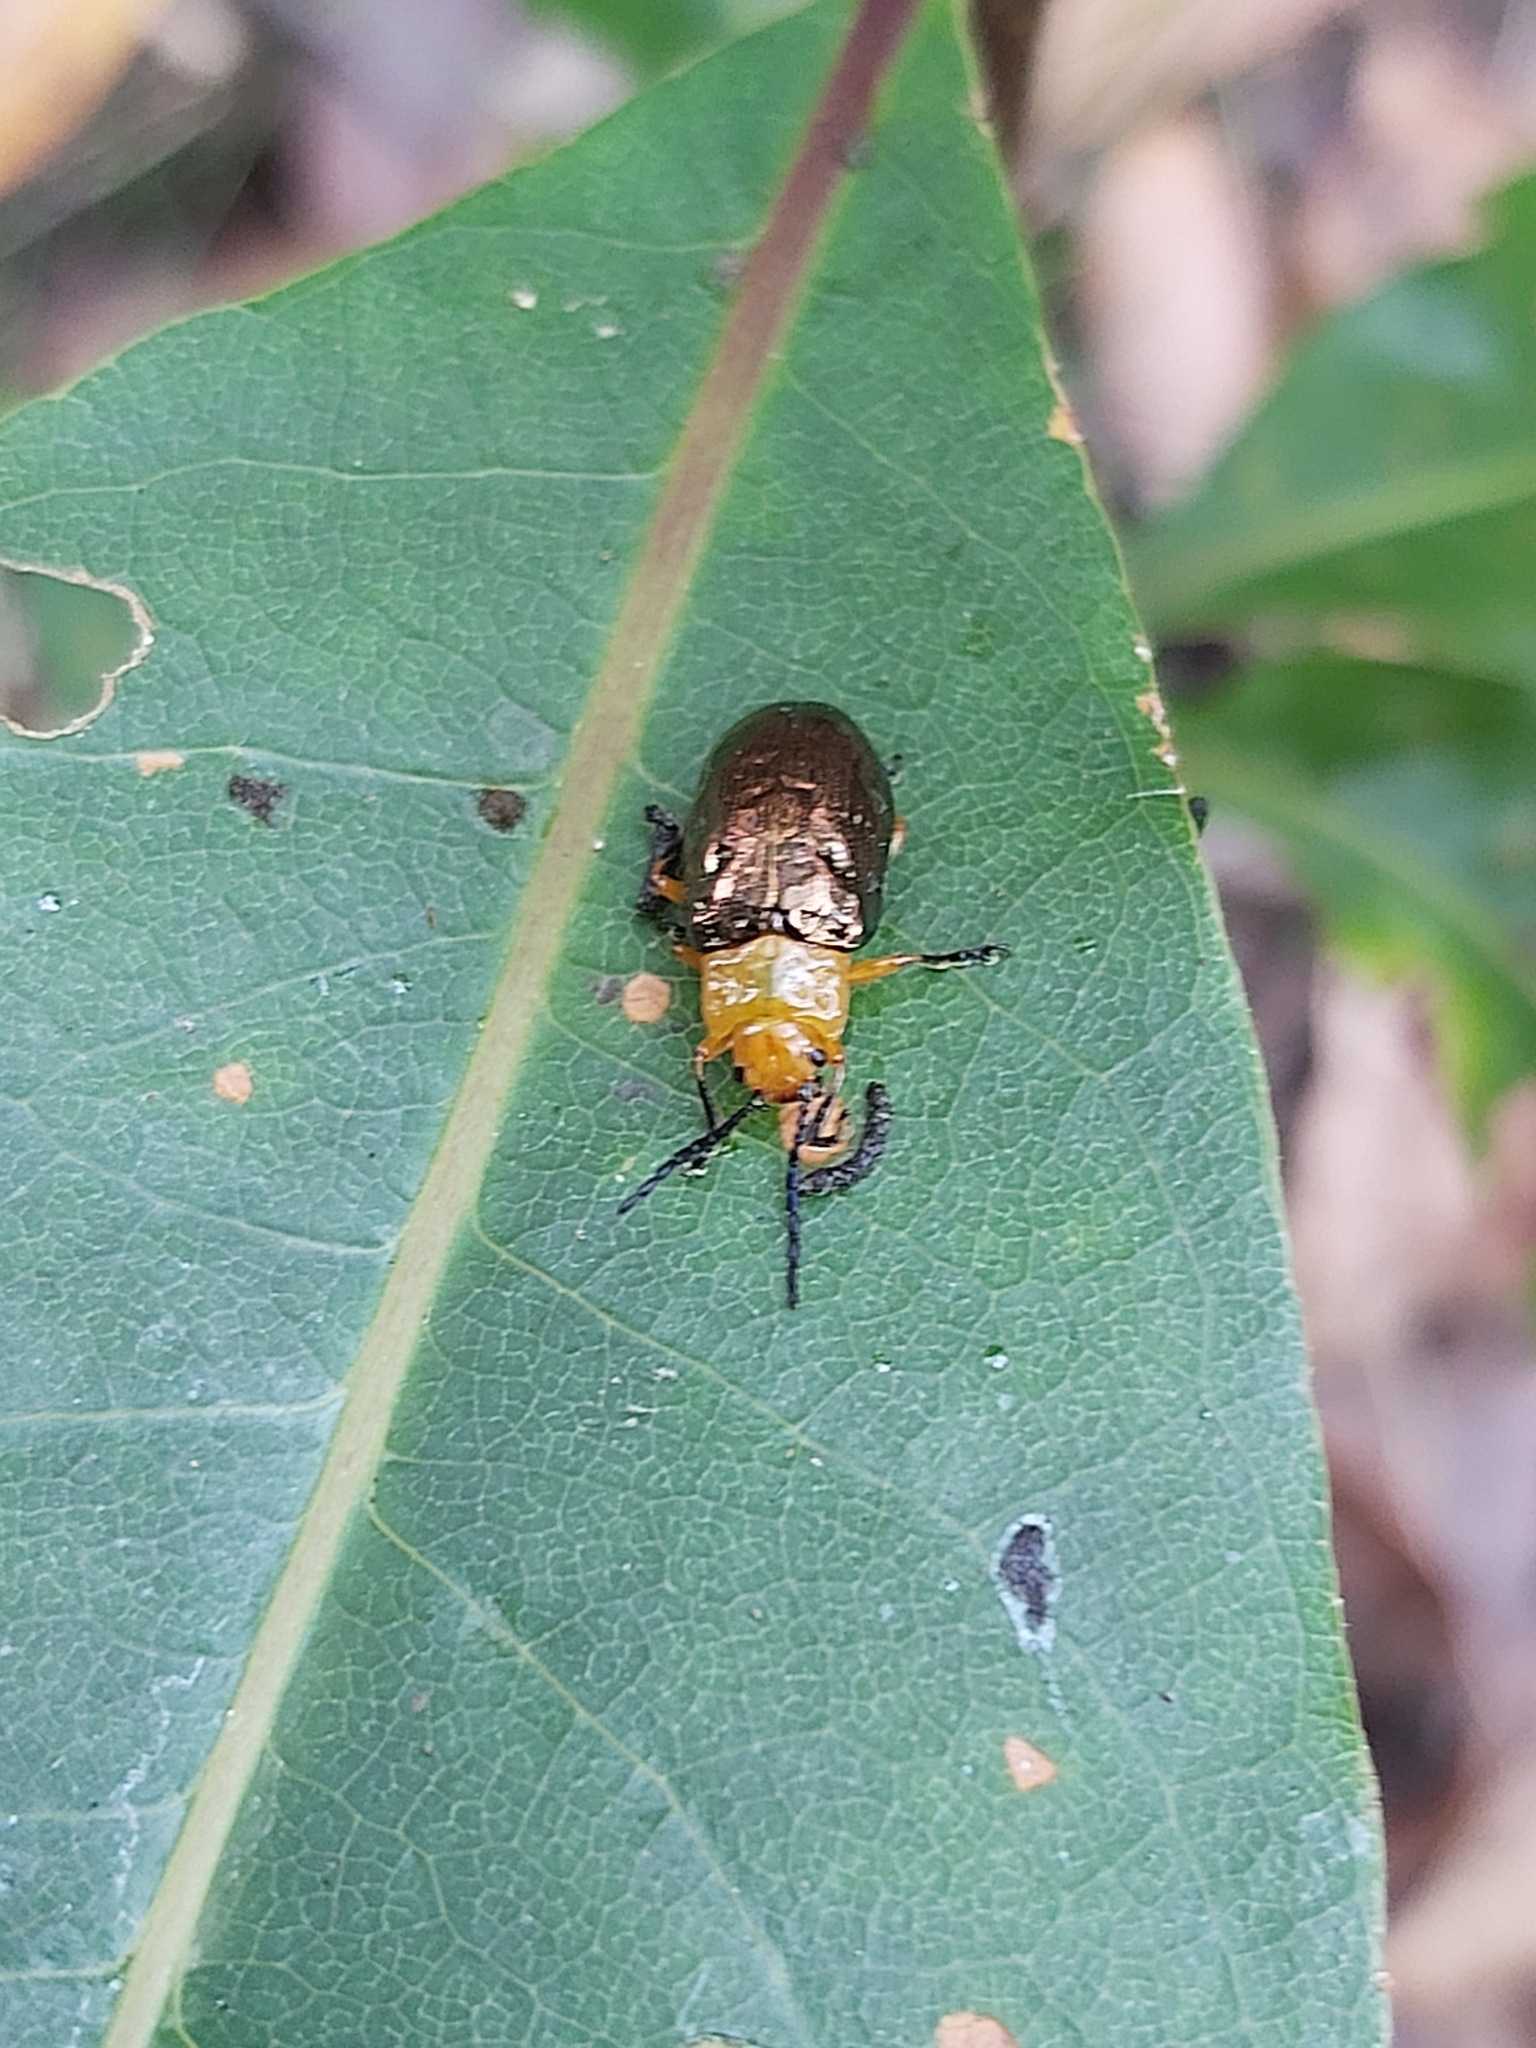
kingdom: Animalia
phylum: Arthropoda
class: Insecta
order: Coleoptera
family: Chrysomelidae
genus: Lamprolina
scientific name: Lamprolina
